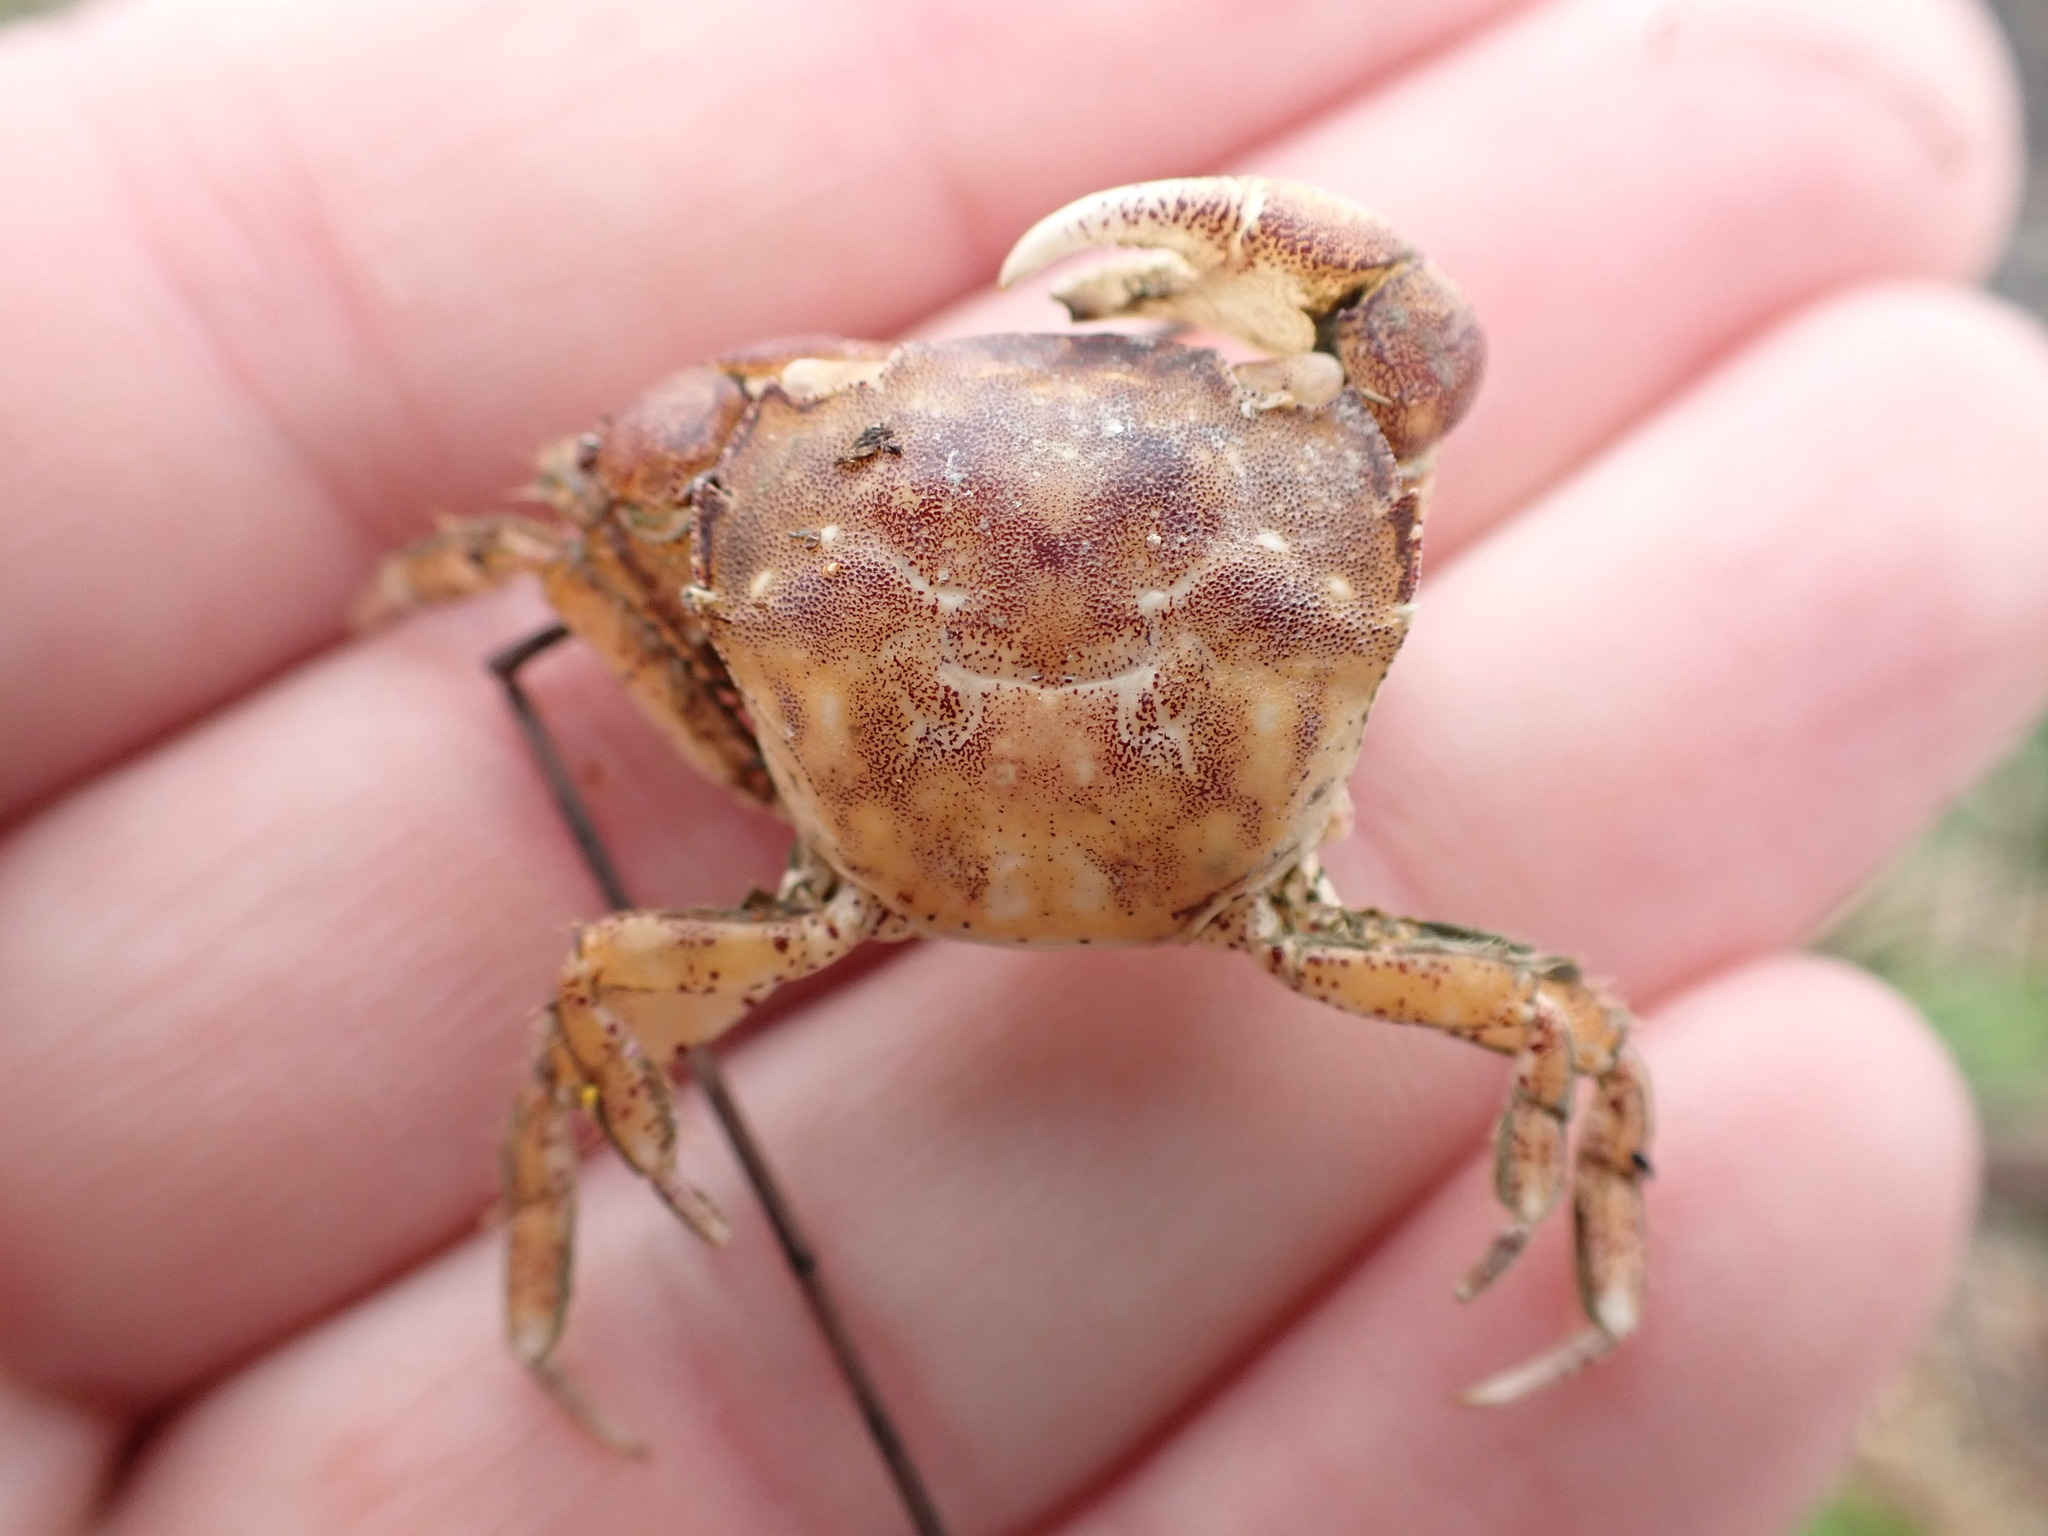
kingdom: Animalia
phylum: Arthropoda
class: Malacostraca
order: Decapoda
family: Varunidae
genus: Hemigrapsus
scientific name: Hemigrapsus crenulatus
